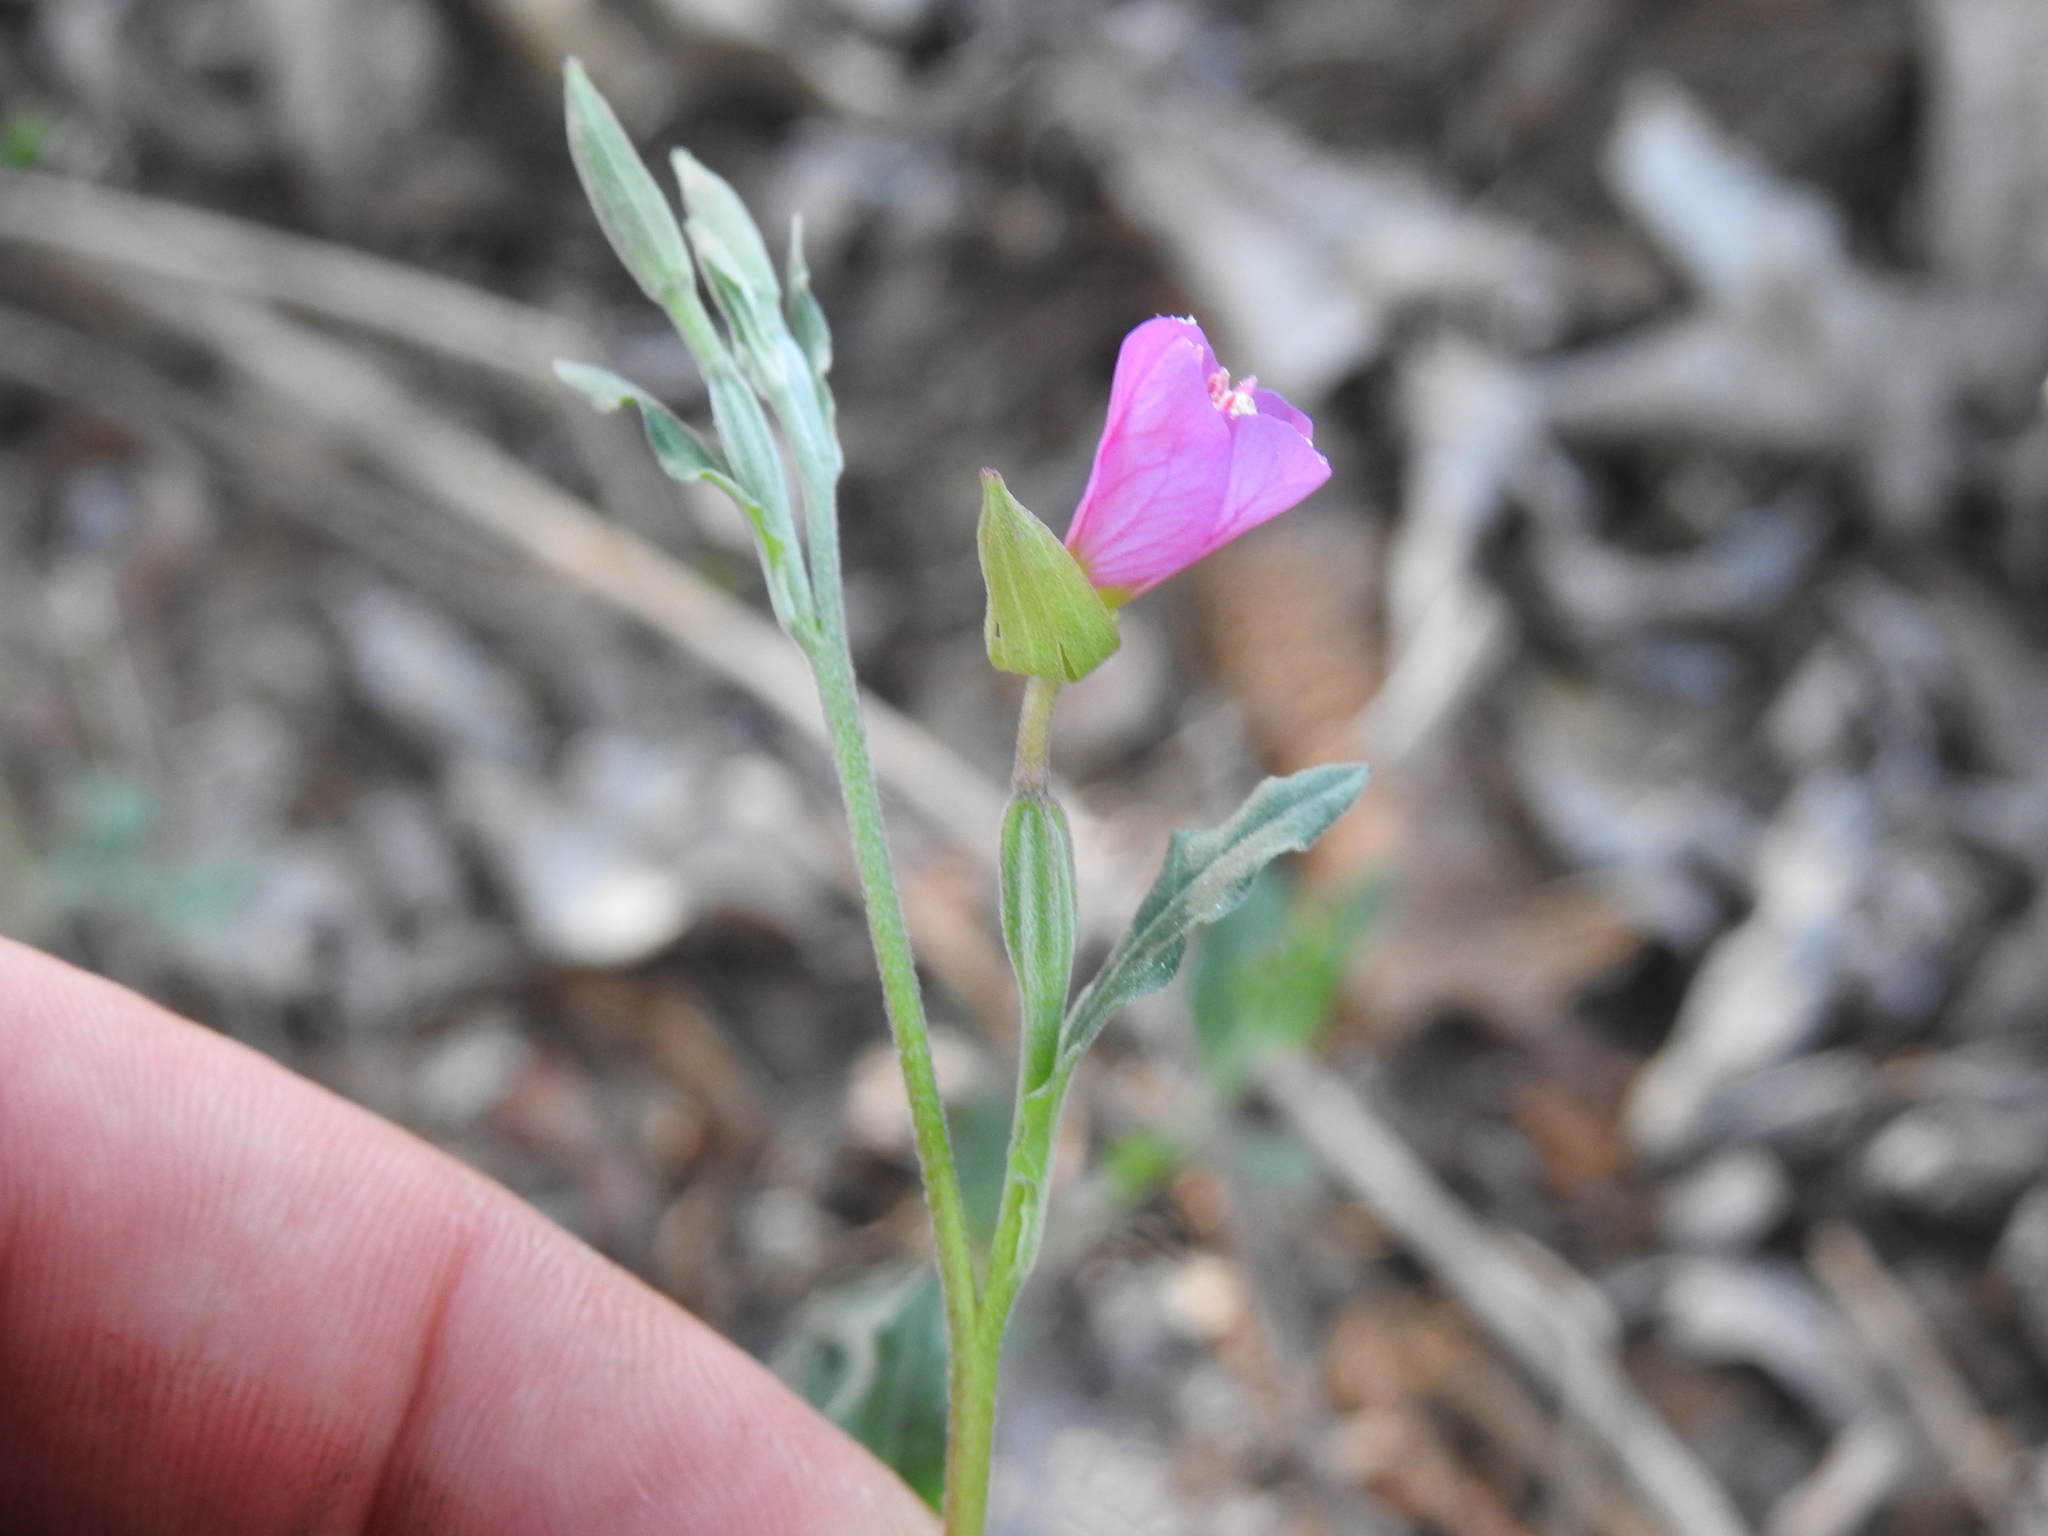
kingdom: Plantae
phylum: Tracheophyta
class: Magnoliopsida
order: Myrtales
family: Onagraceae
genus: Oenothera
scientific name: Oenothera rosea
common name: Rosy evening-primrose
